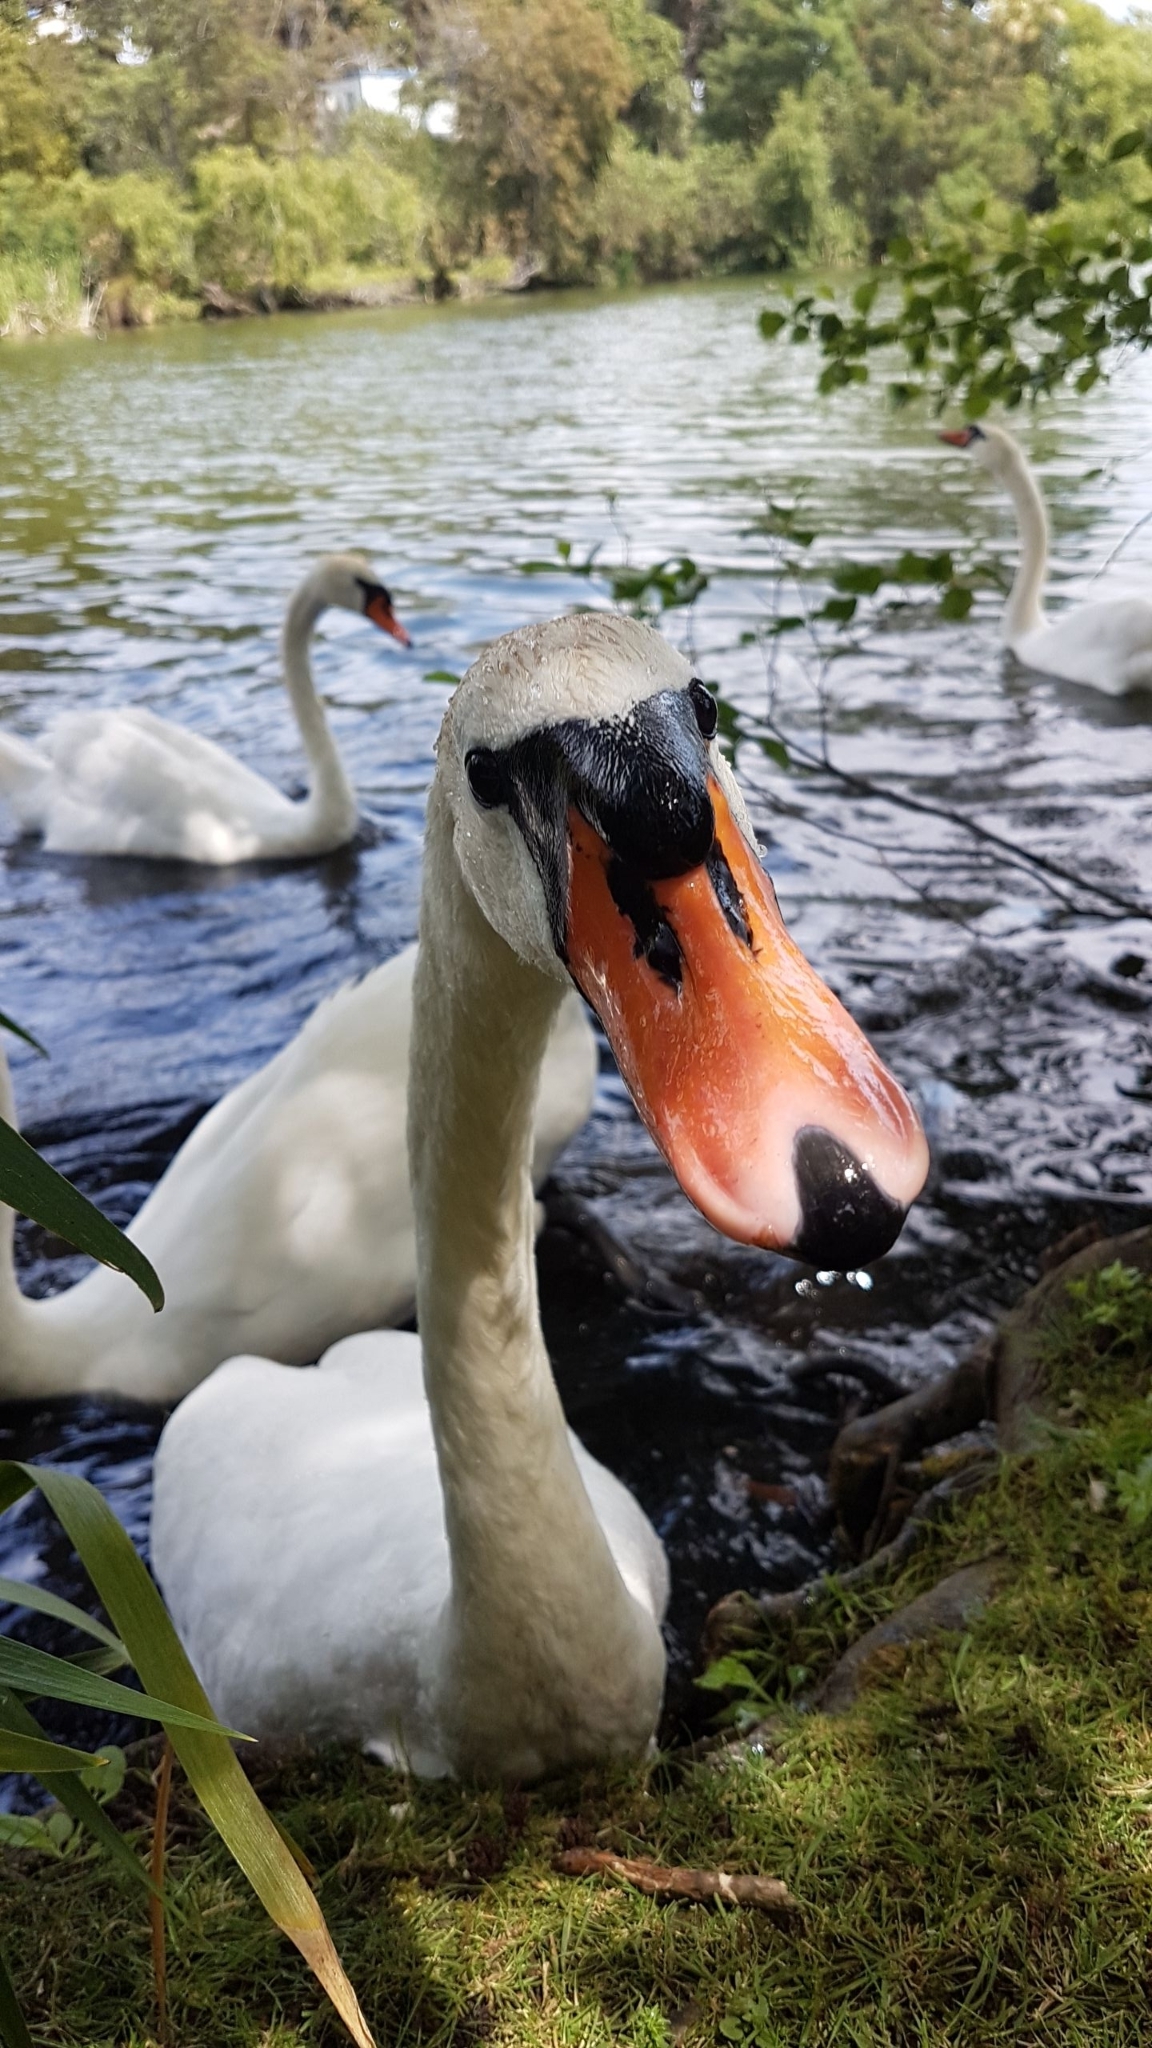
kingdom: Animalia
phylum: Chordata
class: Aves
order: Anseriformes
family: Anatidae
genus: Cygnus
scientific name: Cygnus olor
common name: Mute swan
